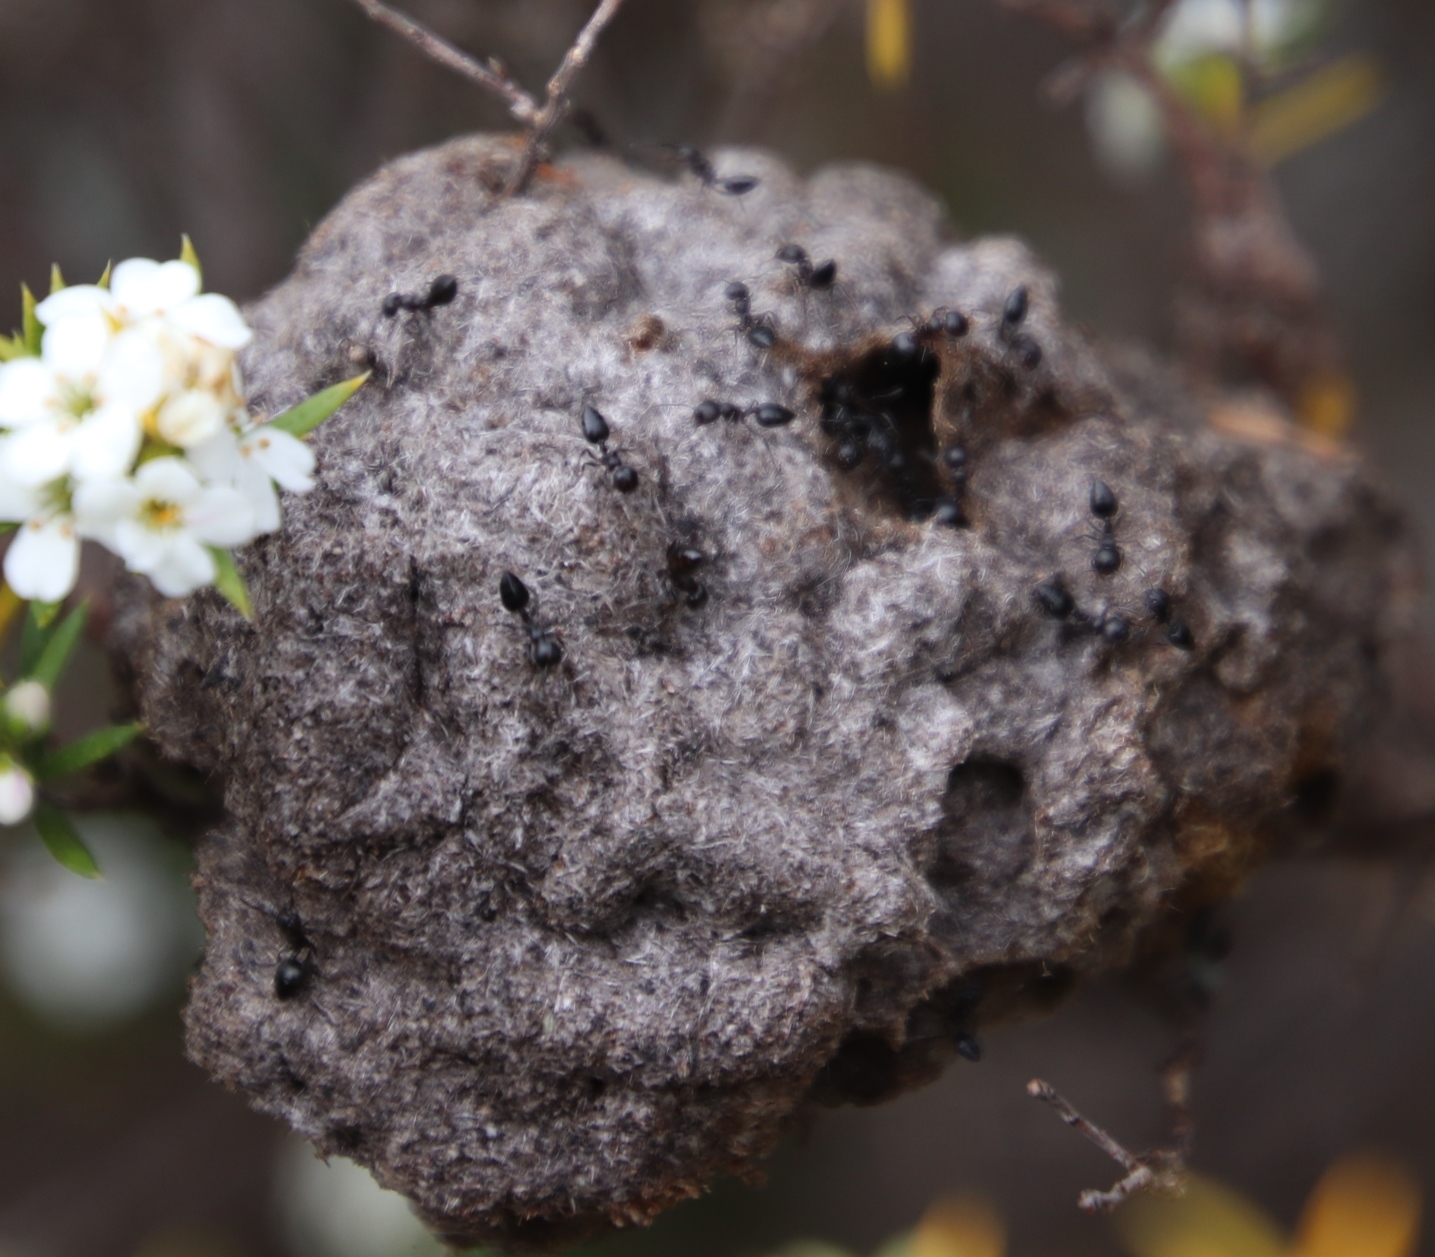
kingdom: Animalia
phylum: Arthropoda
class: Insecta
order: Hymenoptera
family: Formicidae
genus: Crematogaster
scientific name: Crematogaster peringueyi
